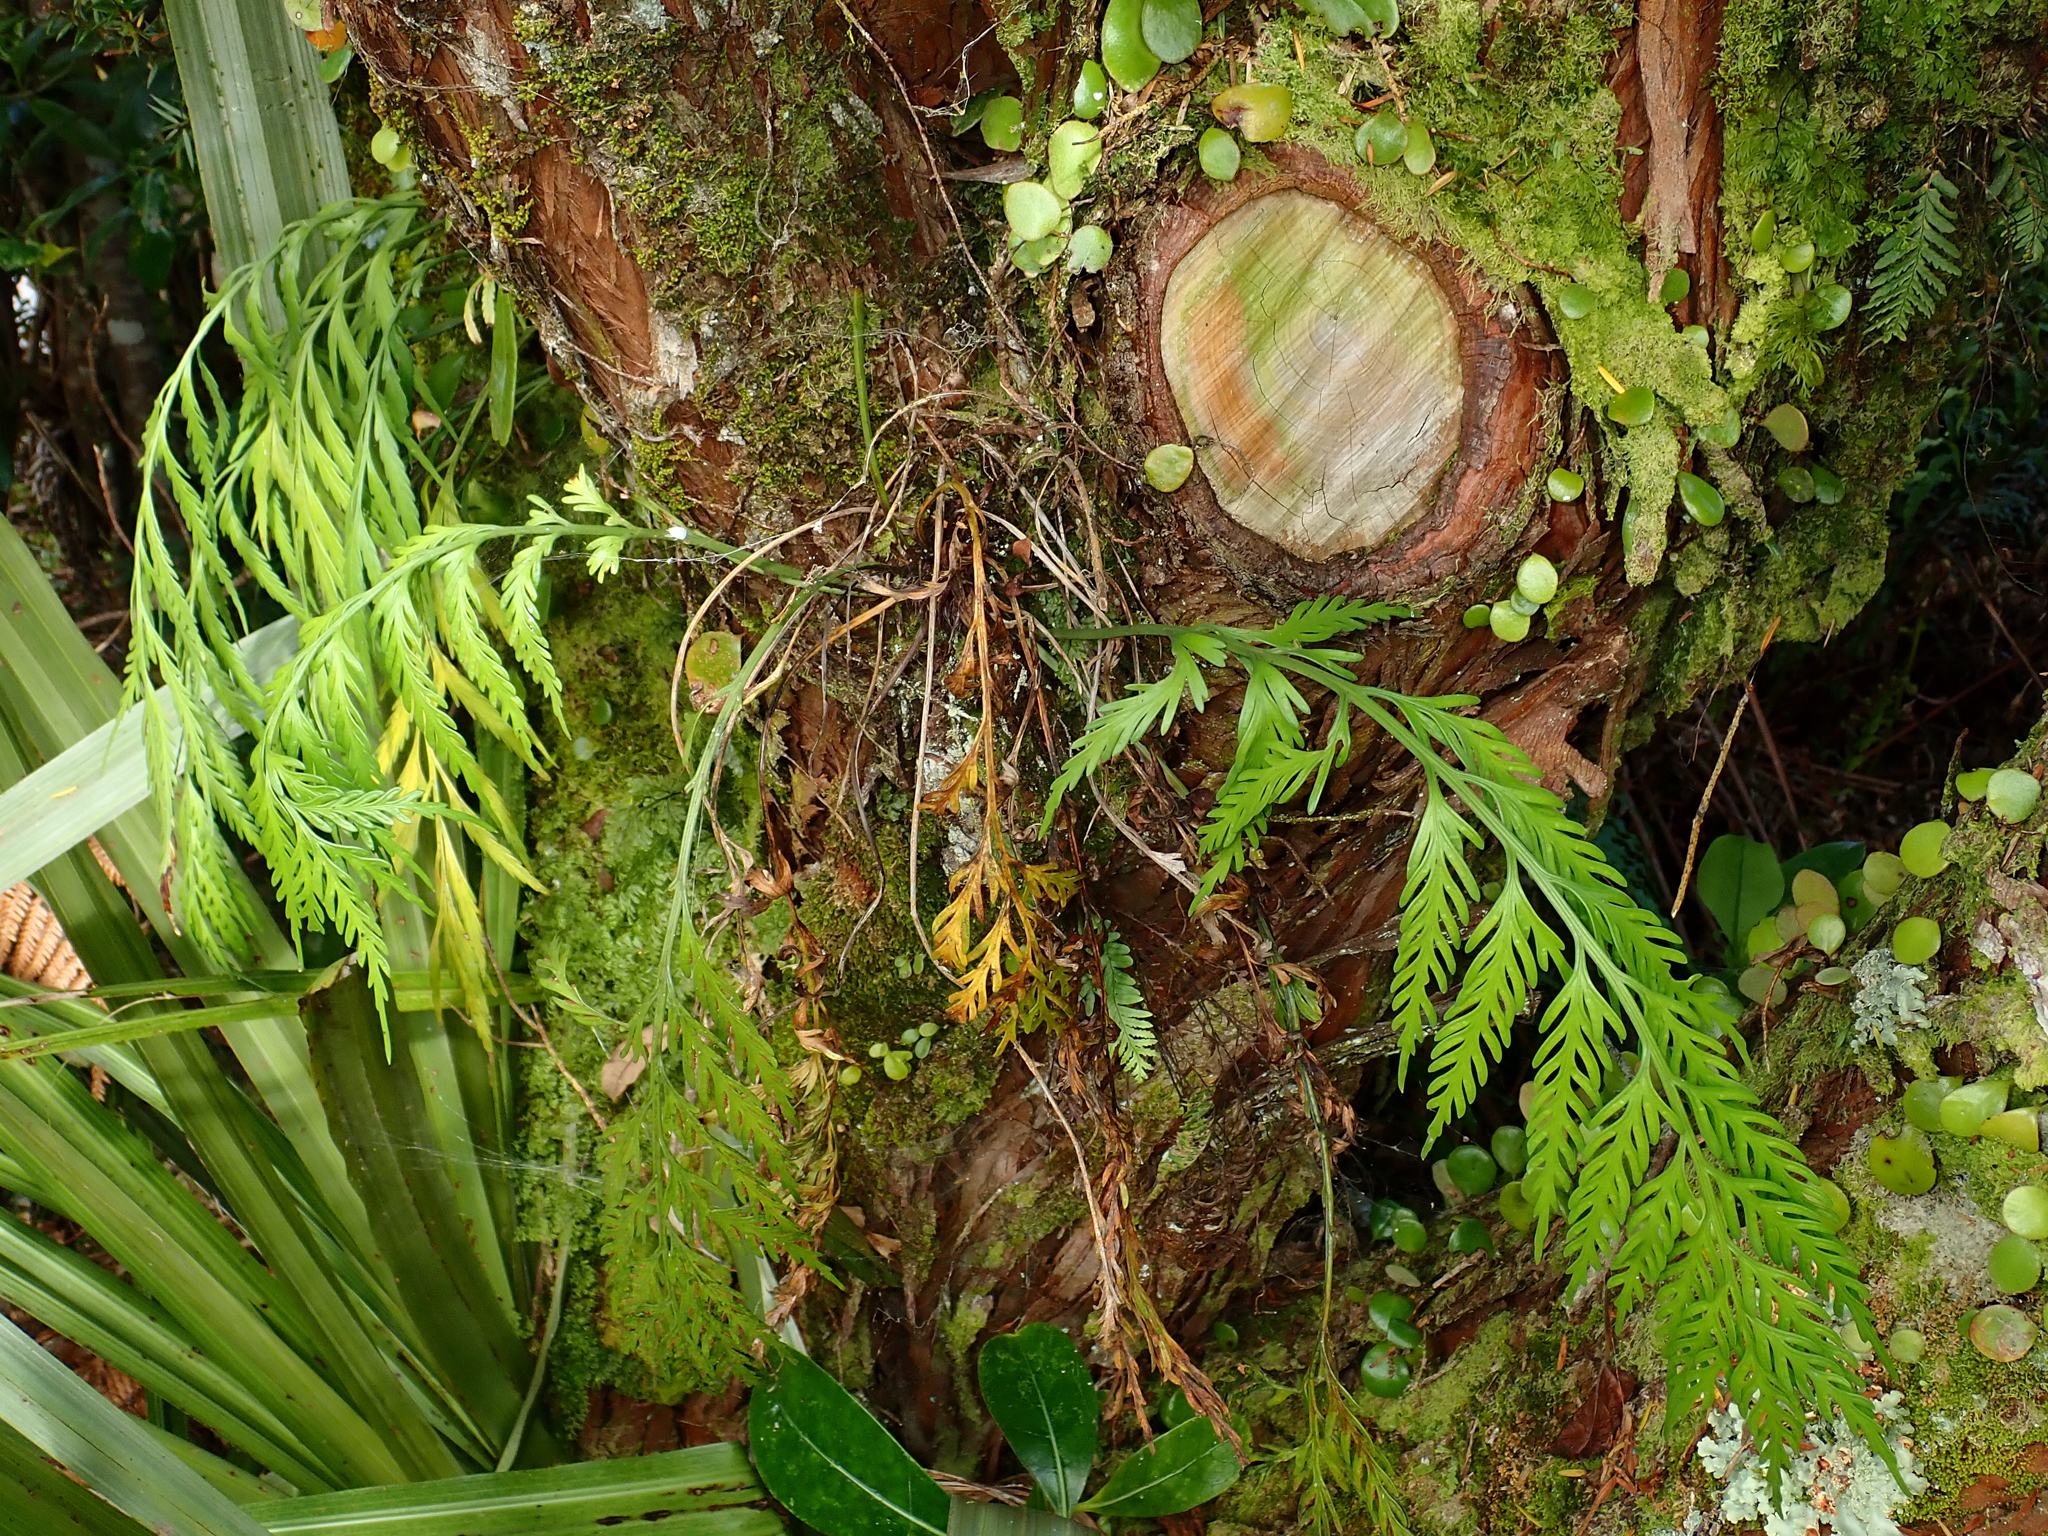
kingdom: Plantae
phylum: Tracheophyta
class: Polypodiopsida
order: Polypodiales
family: Aspleniaceae
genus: Asplenium
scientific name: Asplenium flaccidum
